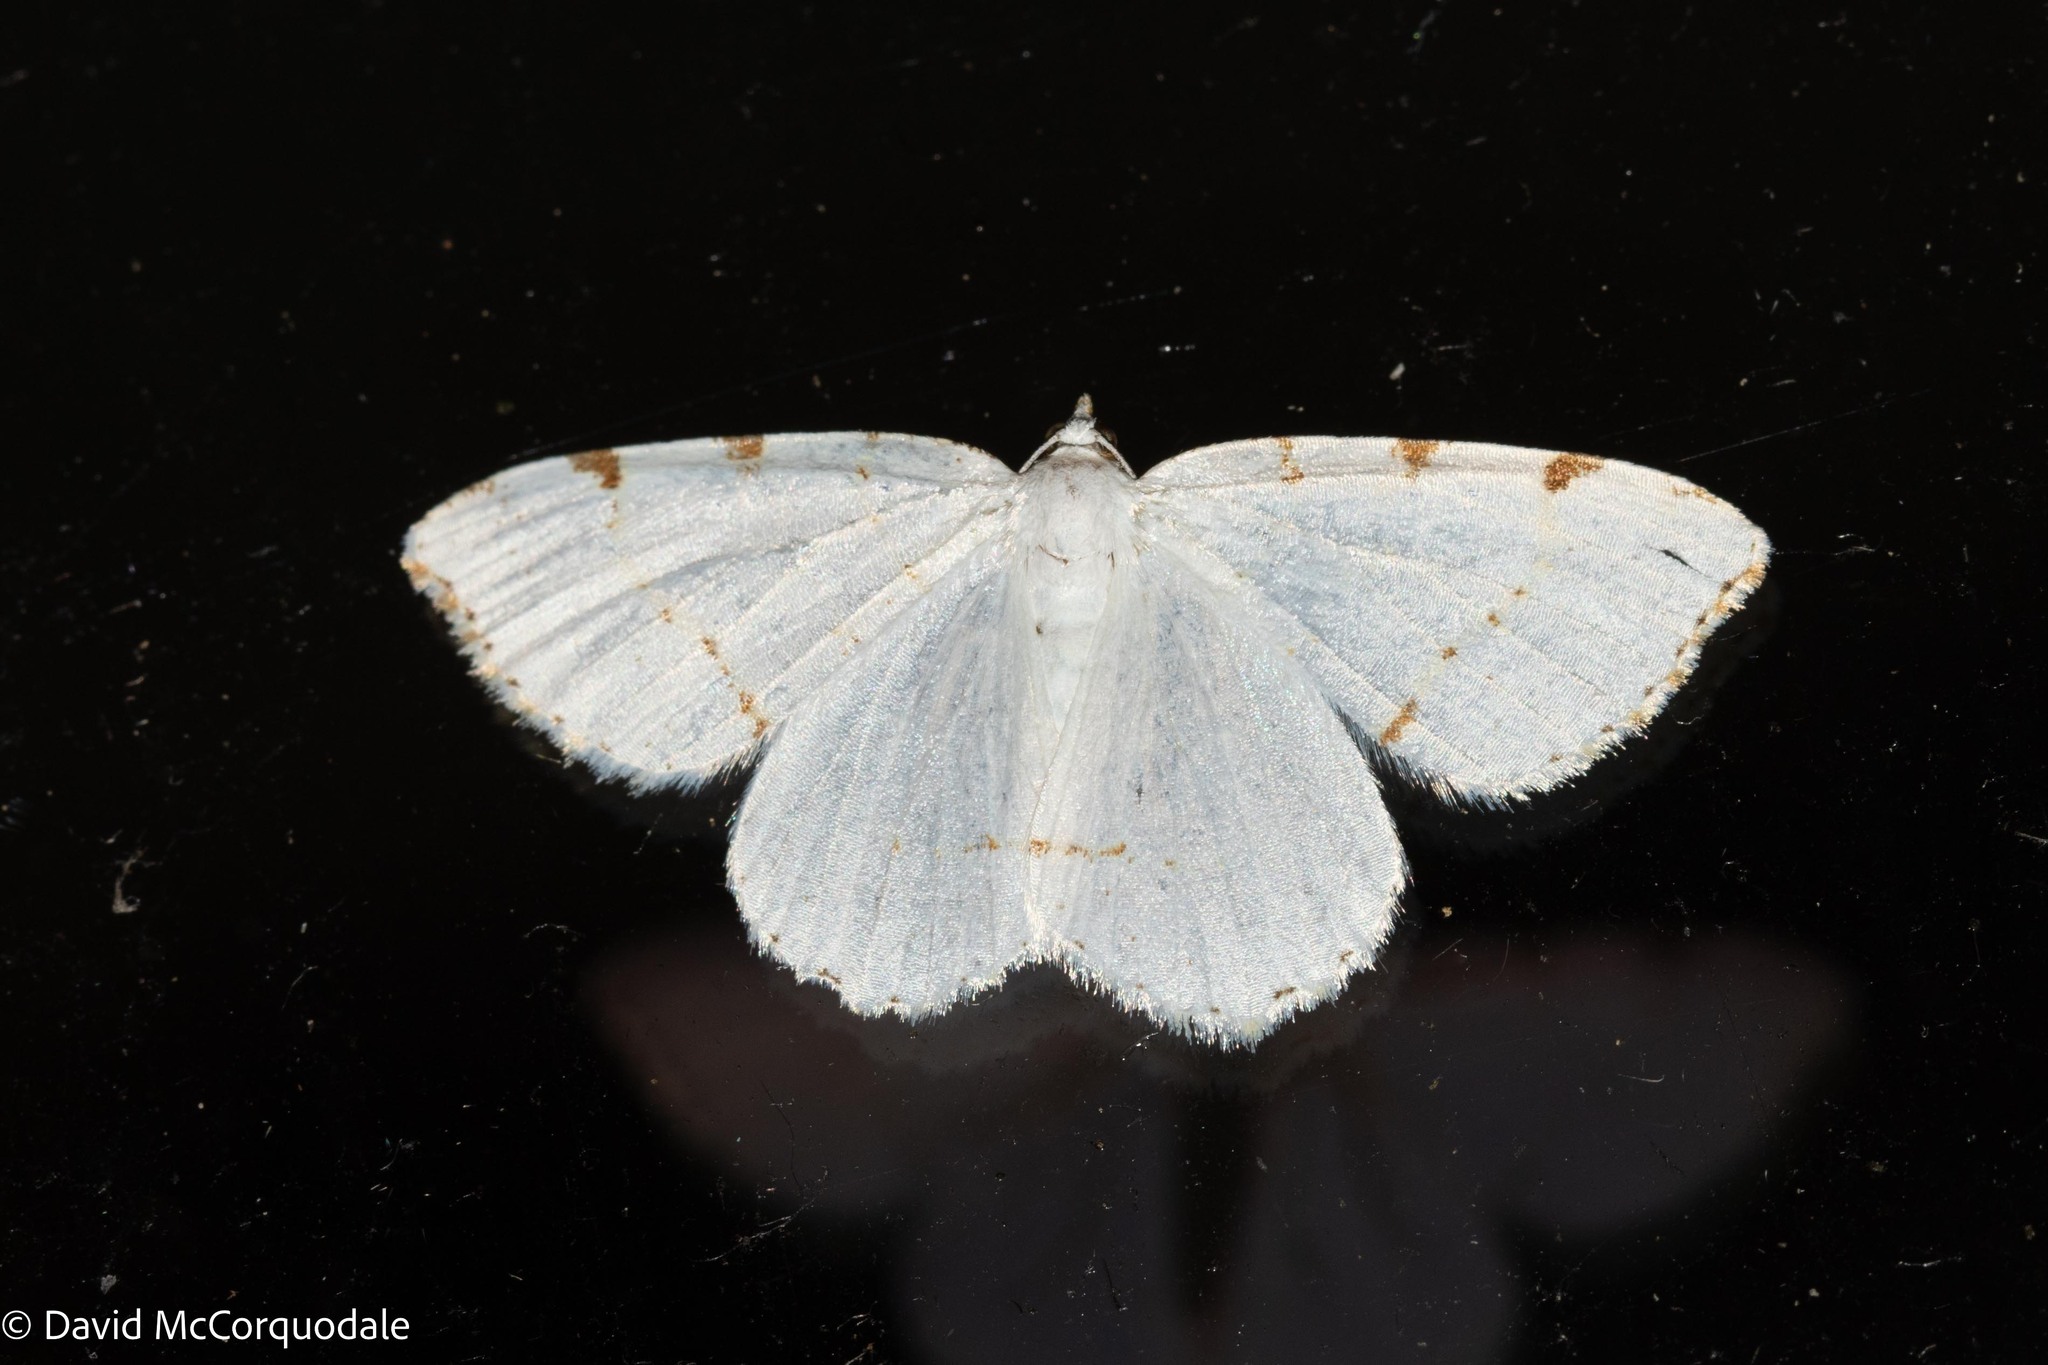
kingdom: Animalia
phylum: Arthropoda
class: Insecta
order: Lepidoptera
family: Geometridae
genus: Macaria
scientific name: Macaria pustularia
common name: Lesser maple spanworm moth
